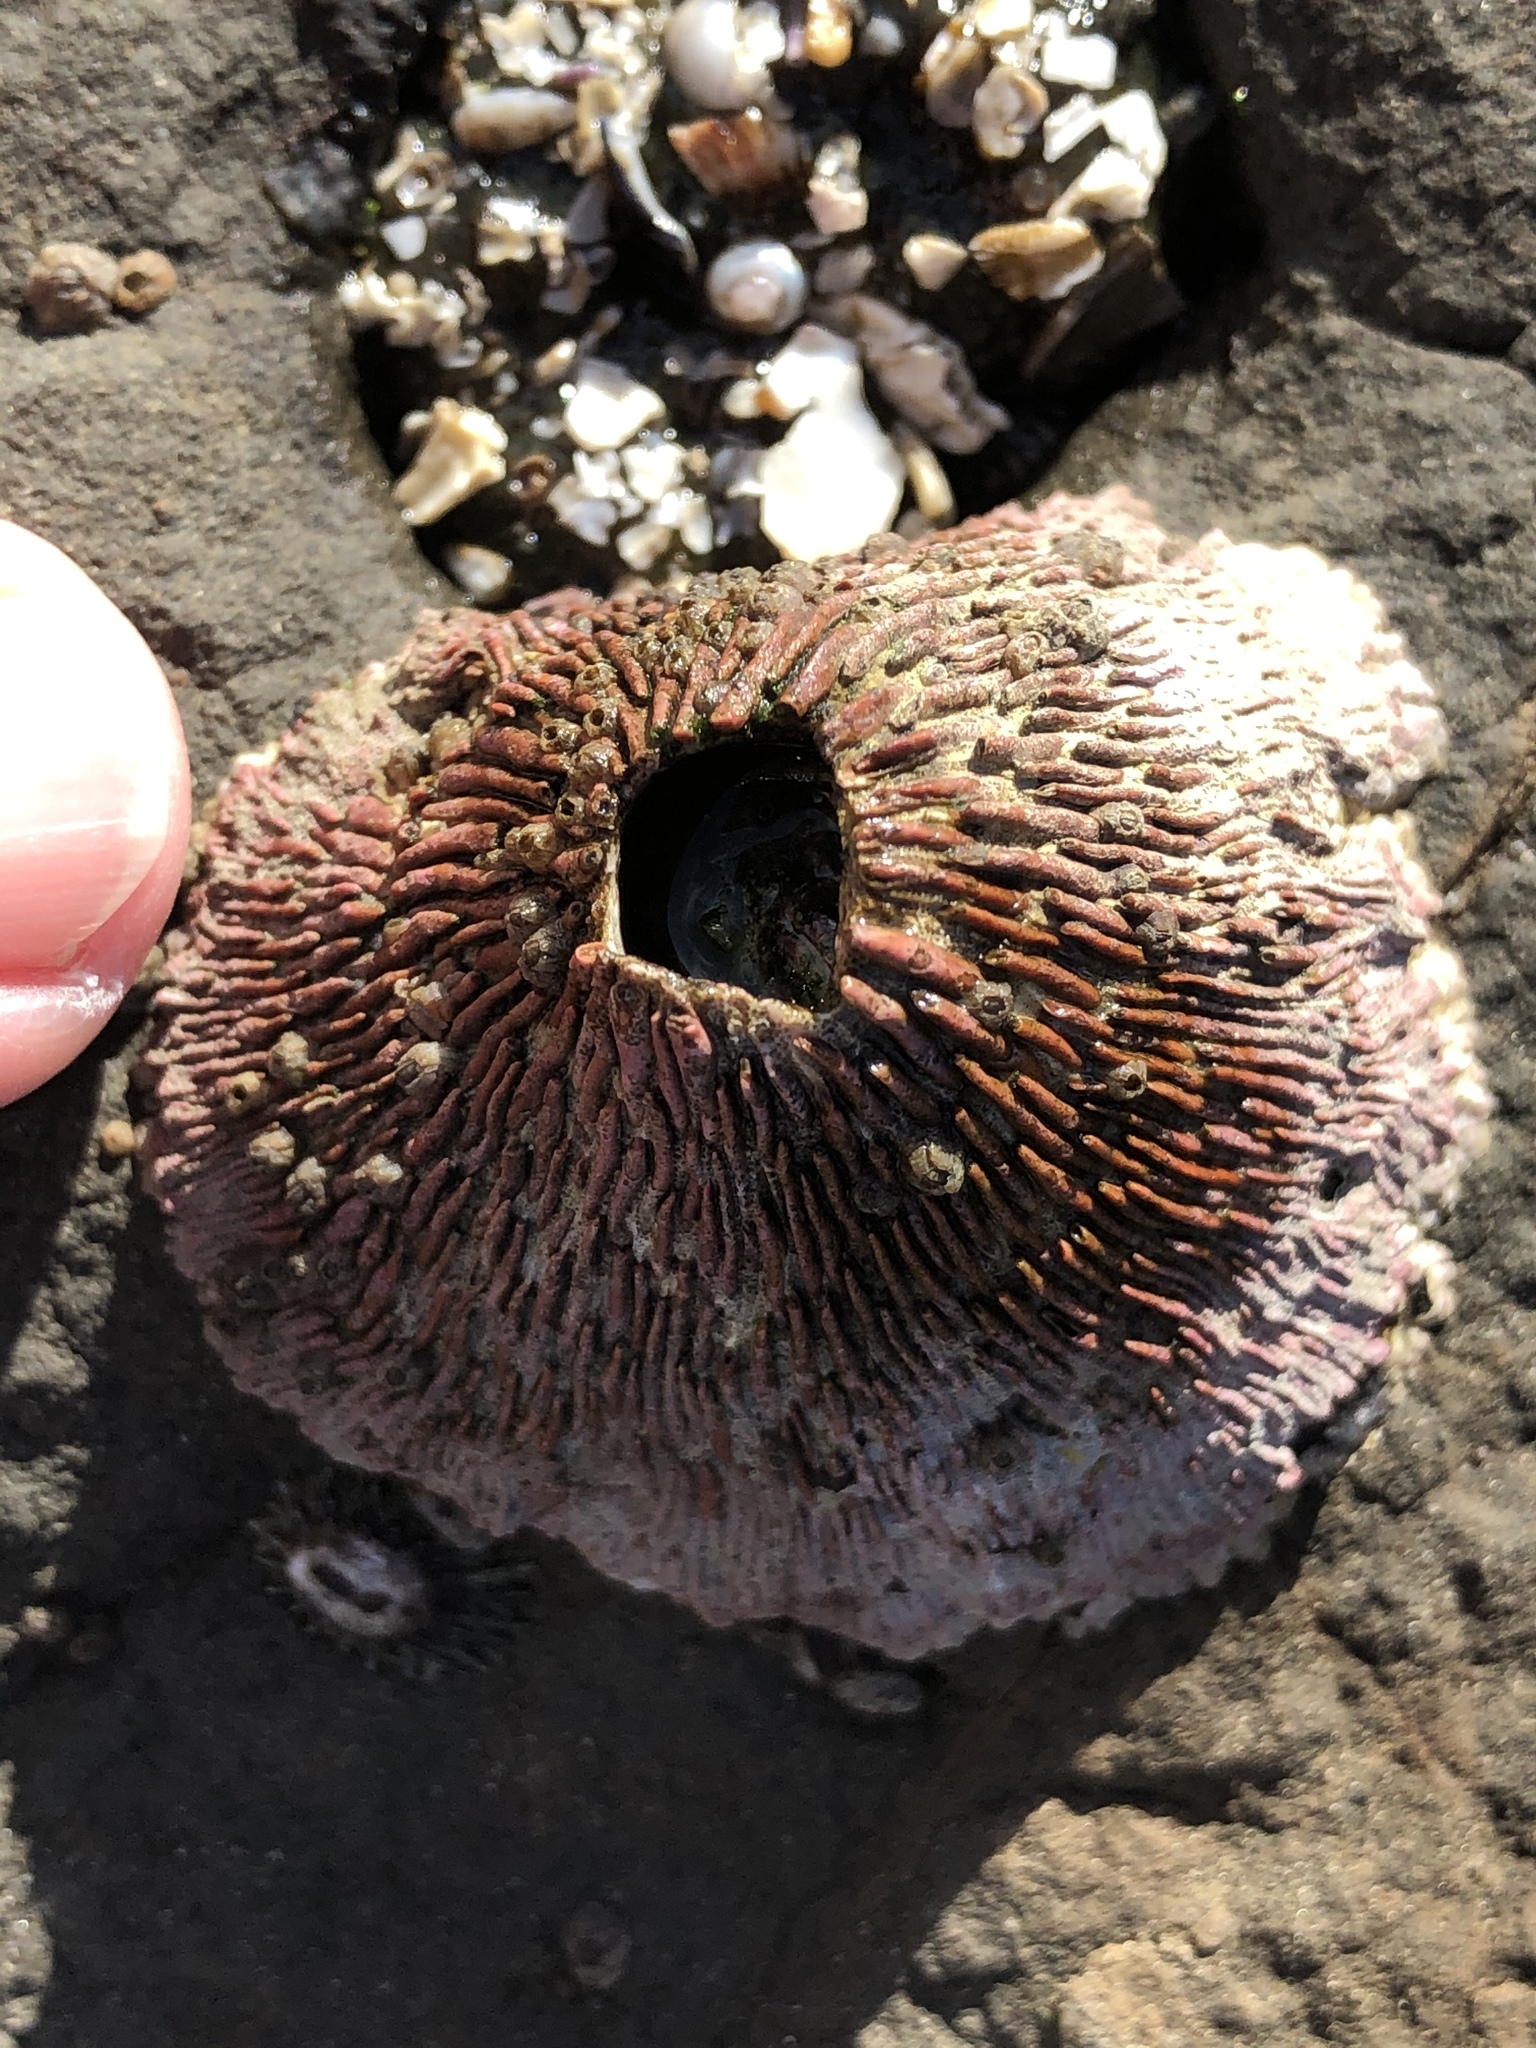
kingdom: Animalia
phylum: Arthropoda
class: Maxillopoda
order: Sessilia
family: Tetraclitidae
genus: Tetraclita
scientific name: Tetraclita rubescens
